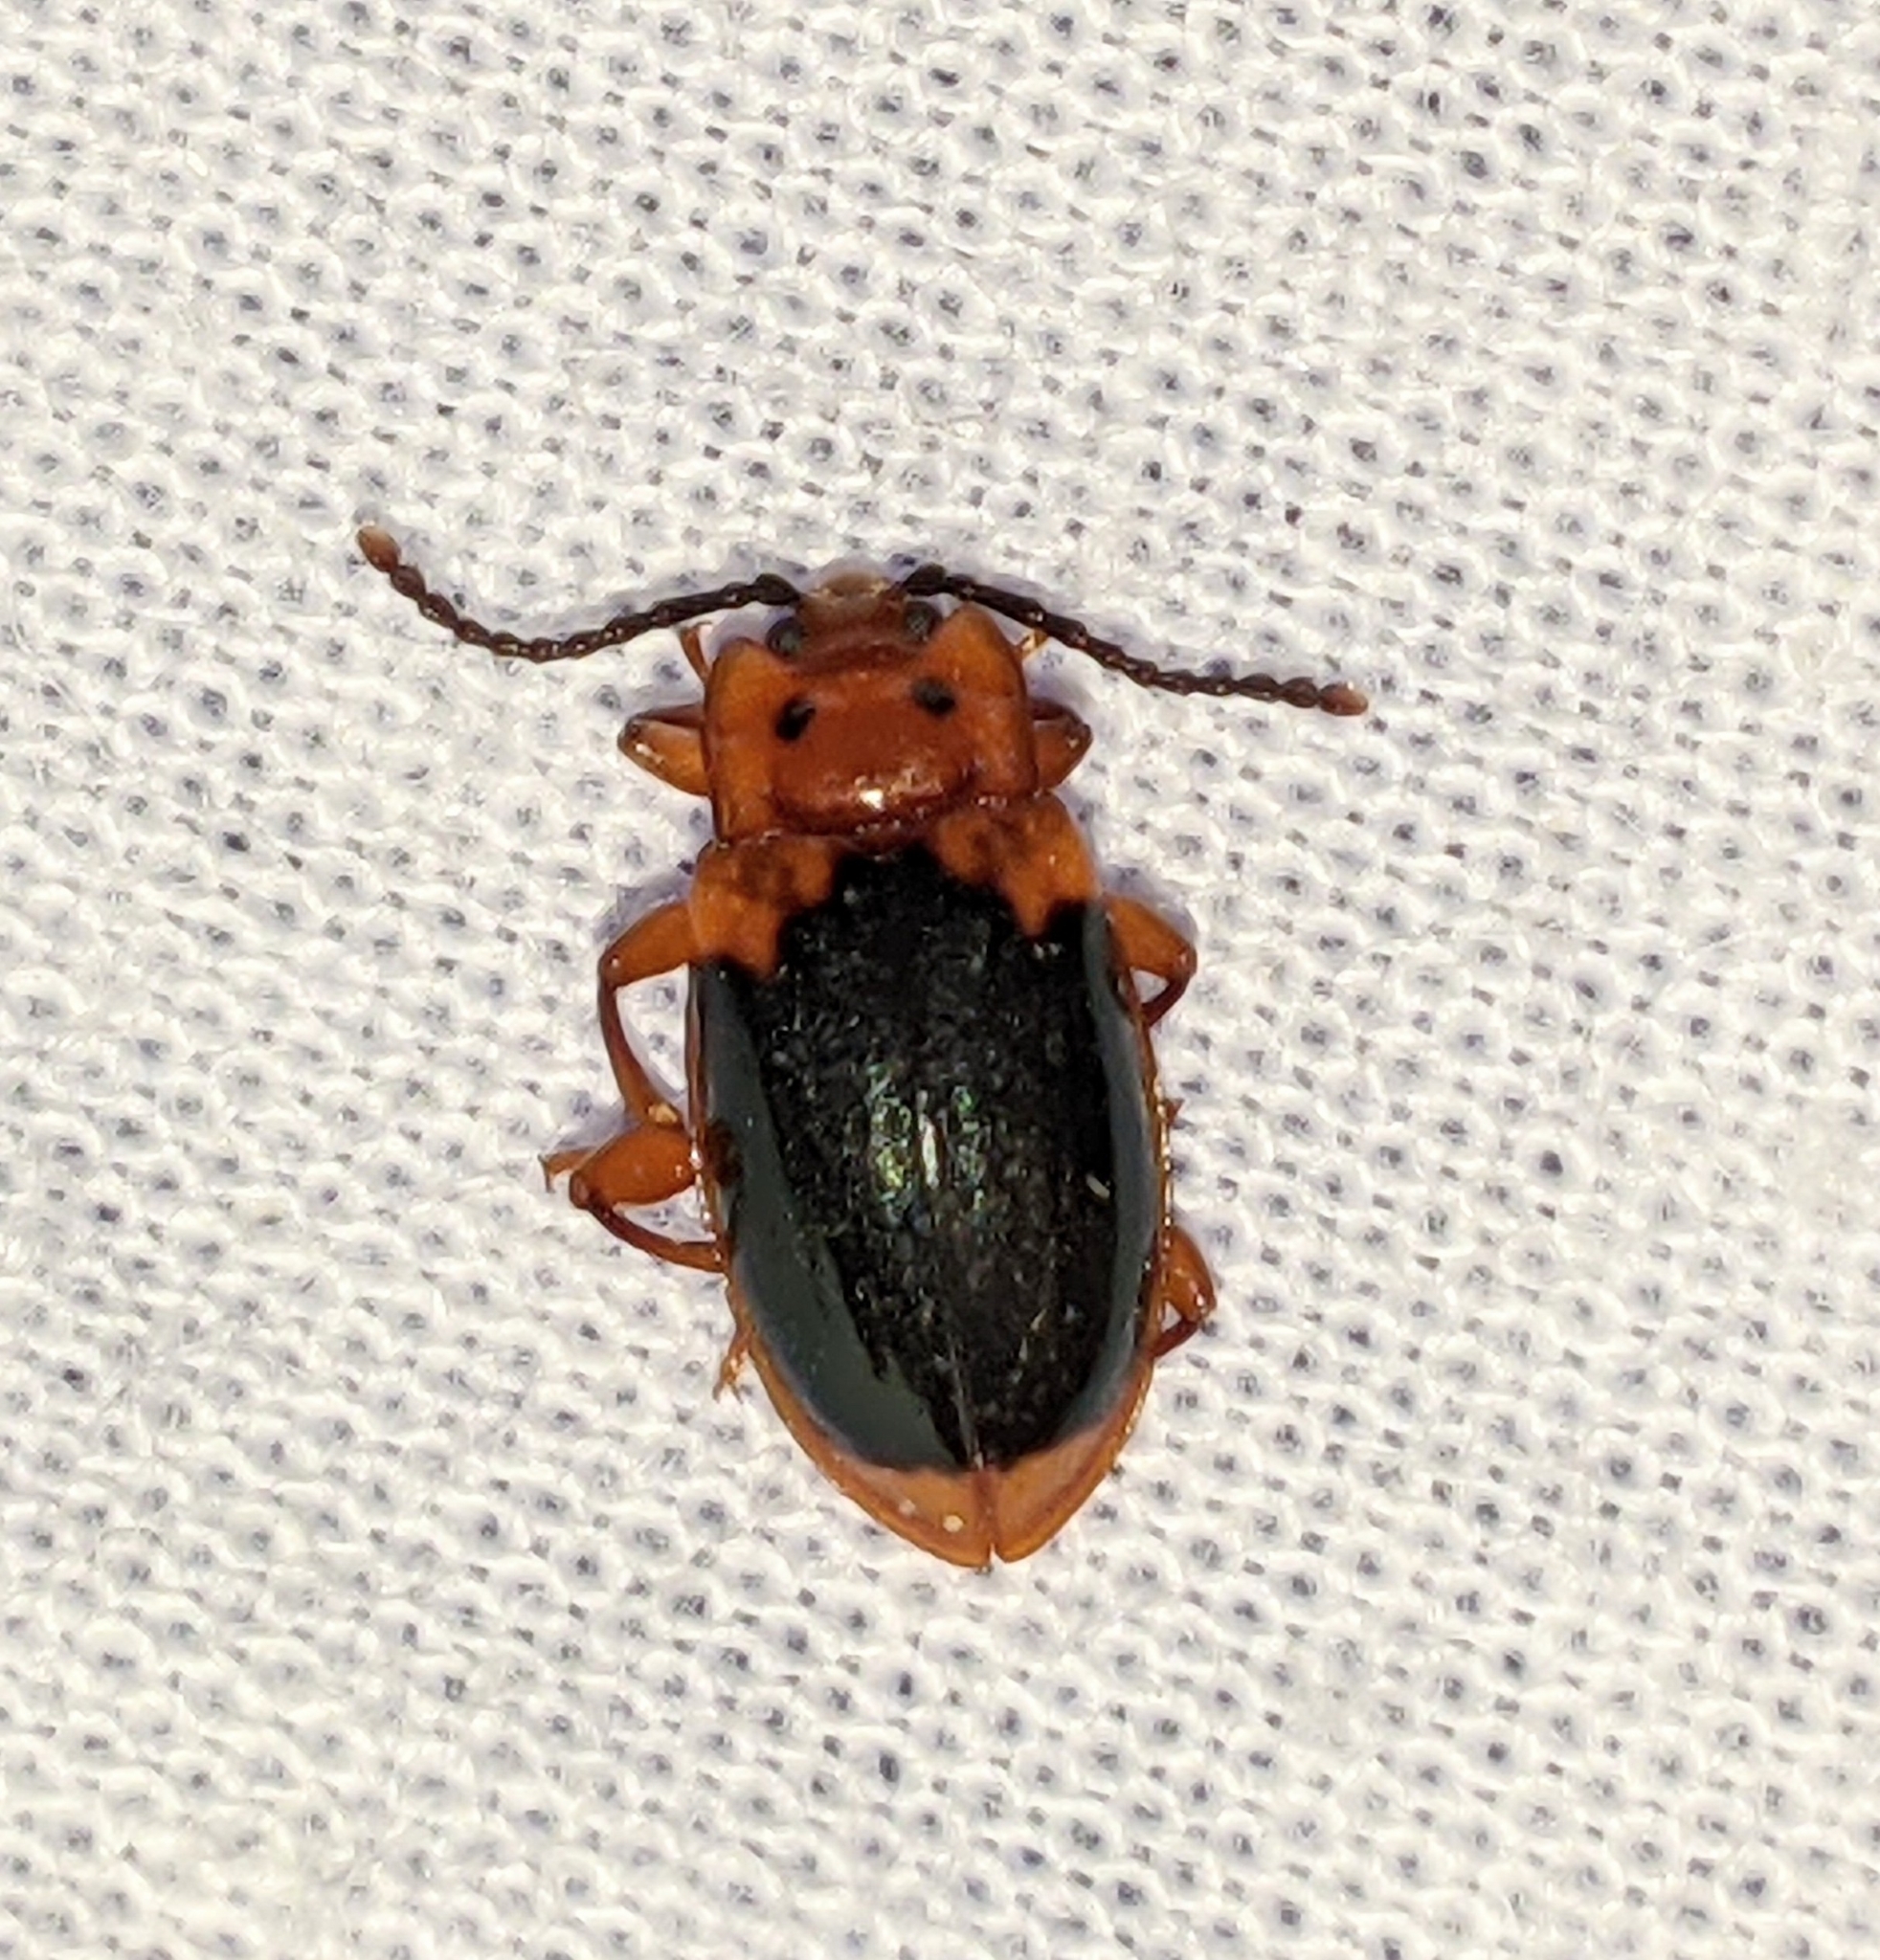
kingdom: Animalia
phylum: Arthropoda
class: Insecta
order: Coleoptera
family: Endomychidae
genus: Aphorista
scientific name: Aphorista laeta
